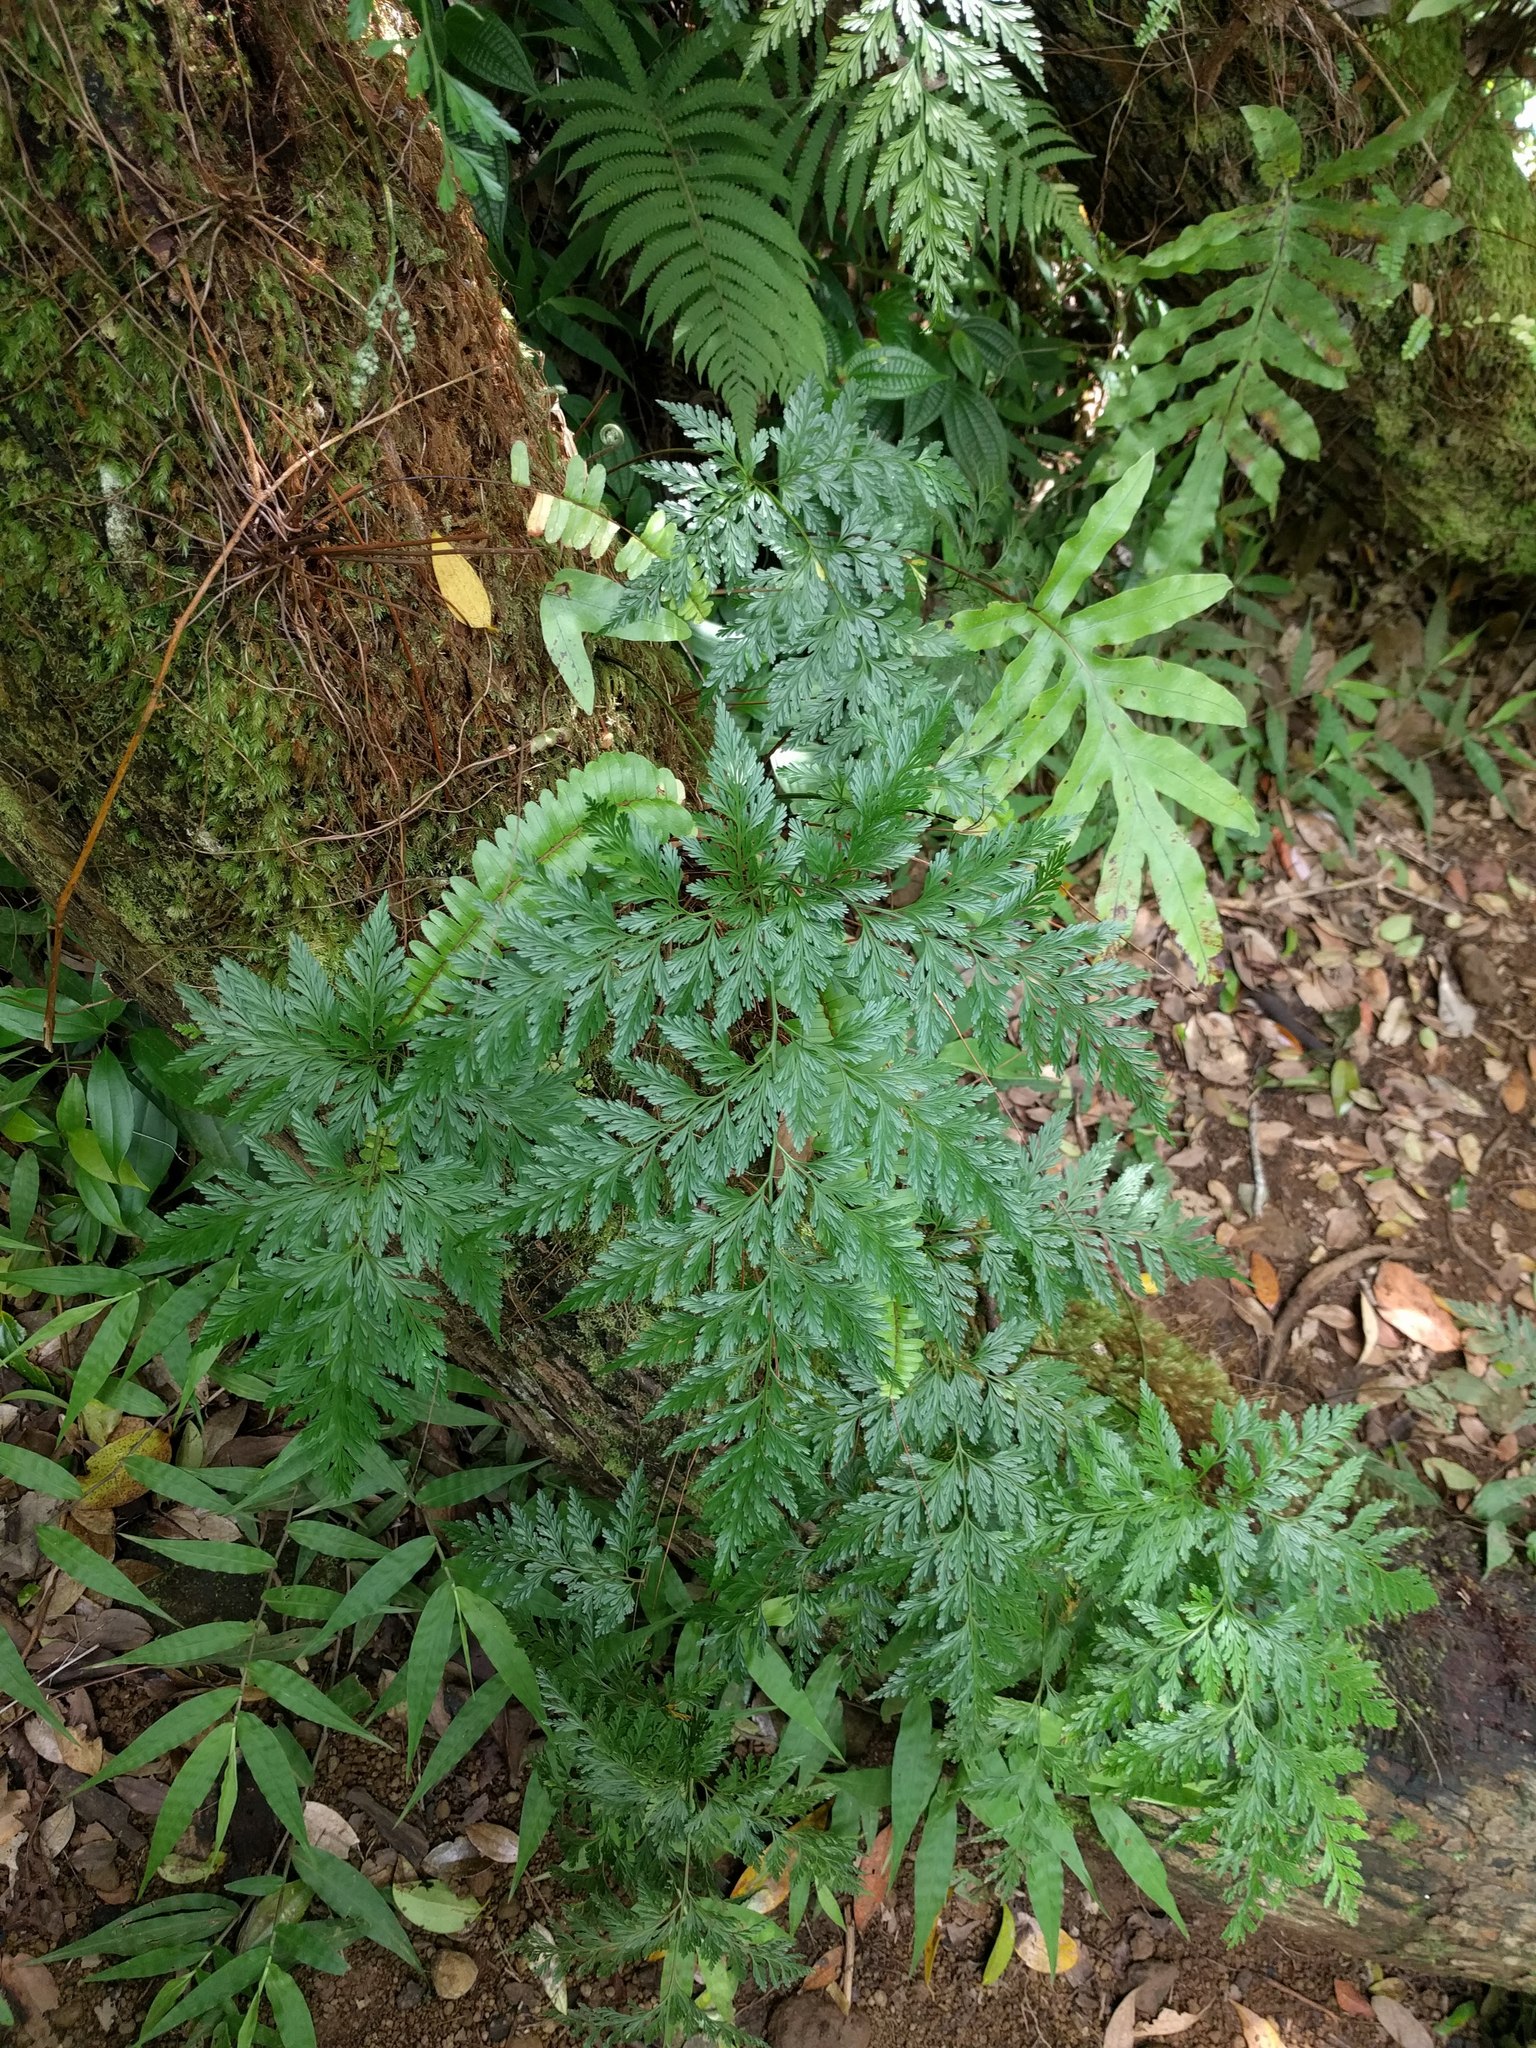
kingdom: Plantae
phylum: Tracheophyta
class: Polypodiopsida
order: Polypodiales
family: Davalliaceae
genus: Davallia
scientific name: Davallia fejeensis
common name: Lacy hare's-foot fern
